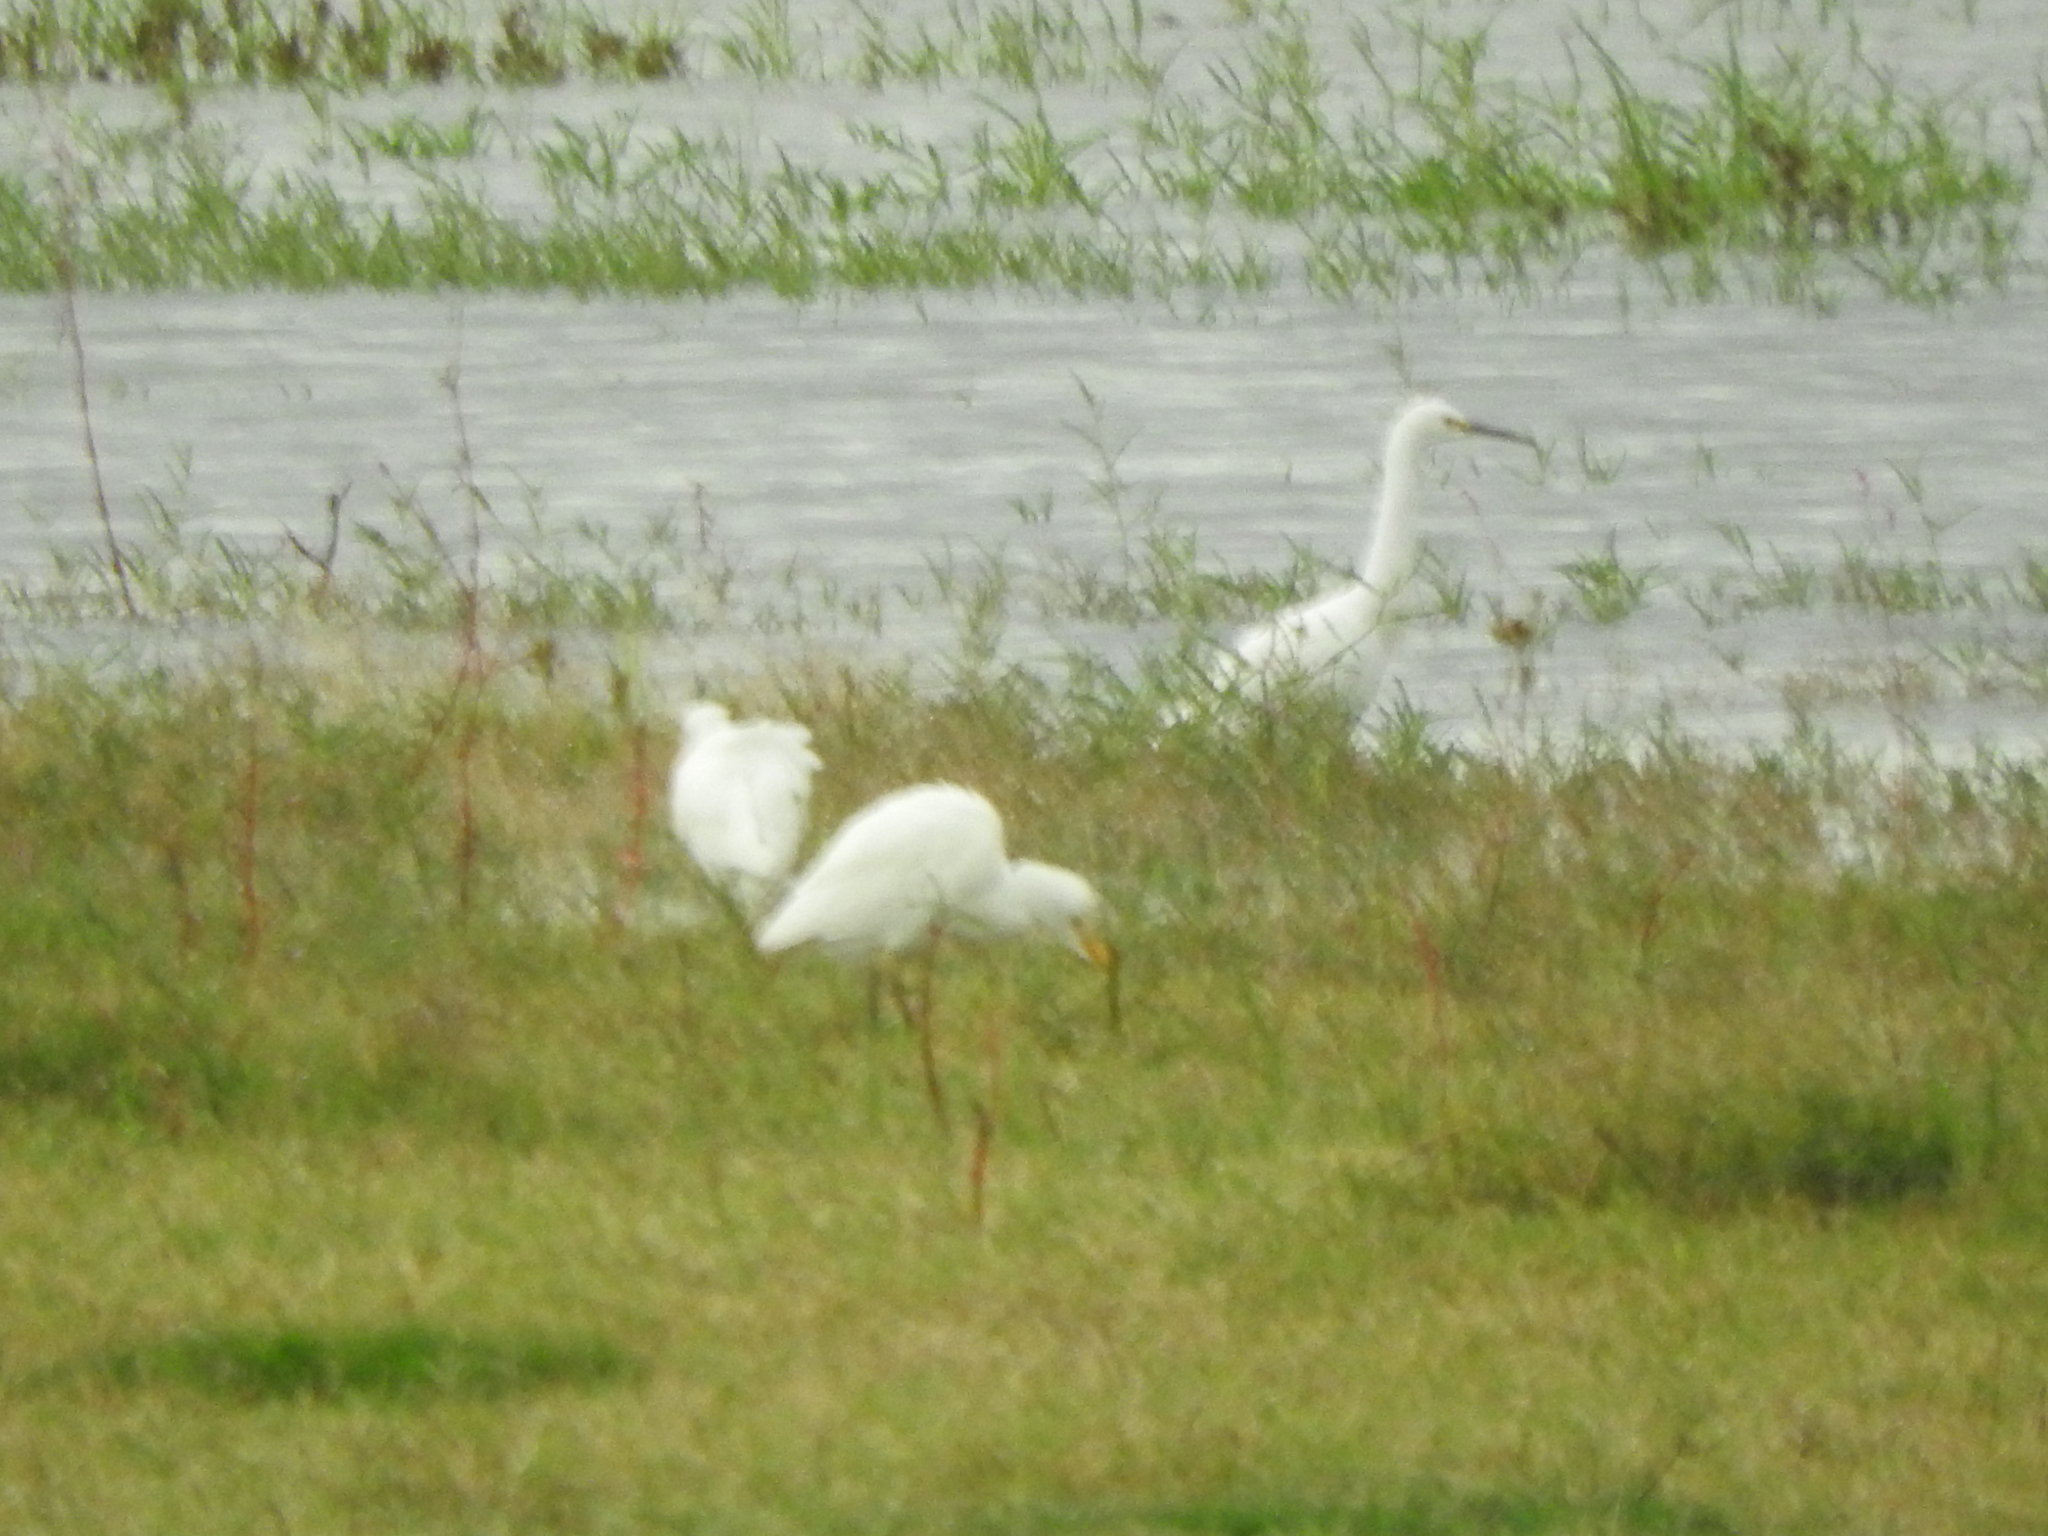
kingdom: Animalia
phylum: Chordata
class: Aves
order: Pelecaniformes
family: Ardeidae
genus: Egretta
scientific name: Egretta thula
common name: Snowy egret
